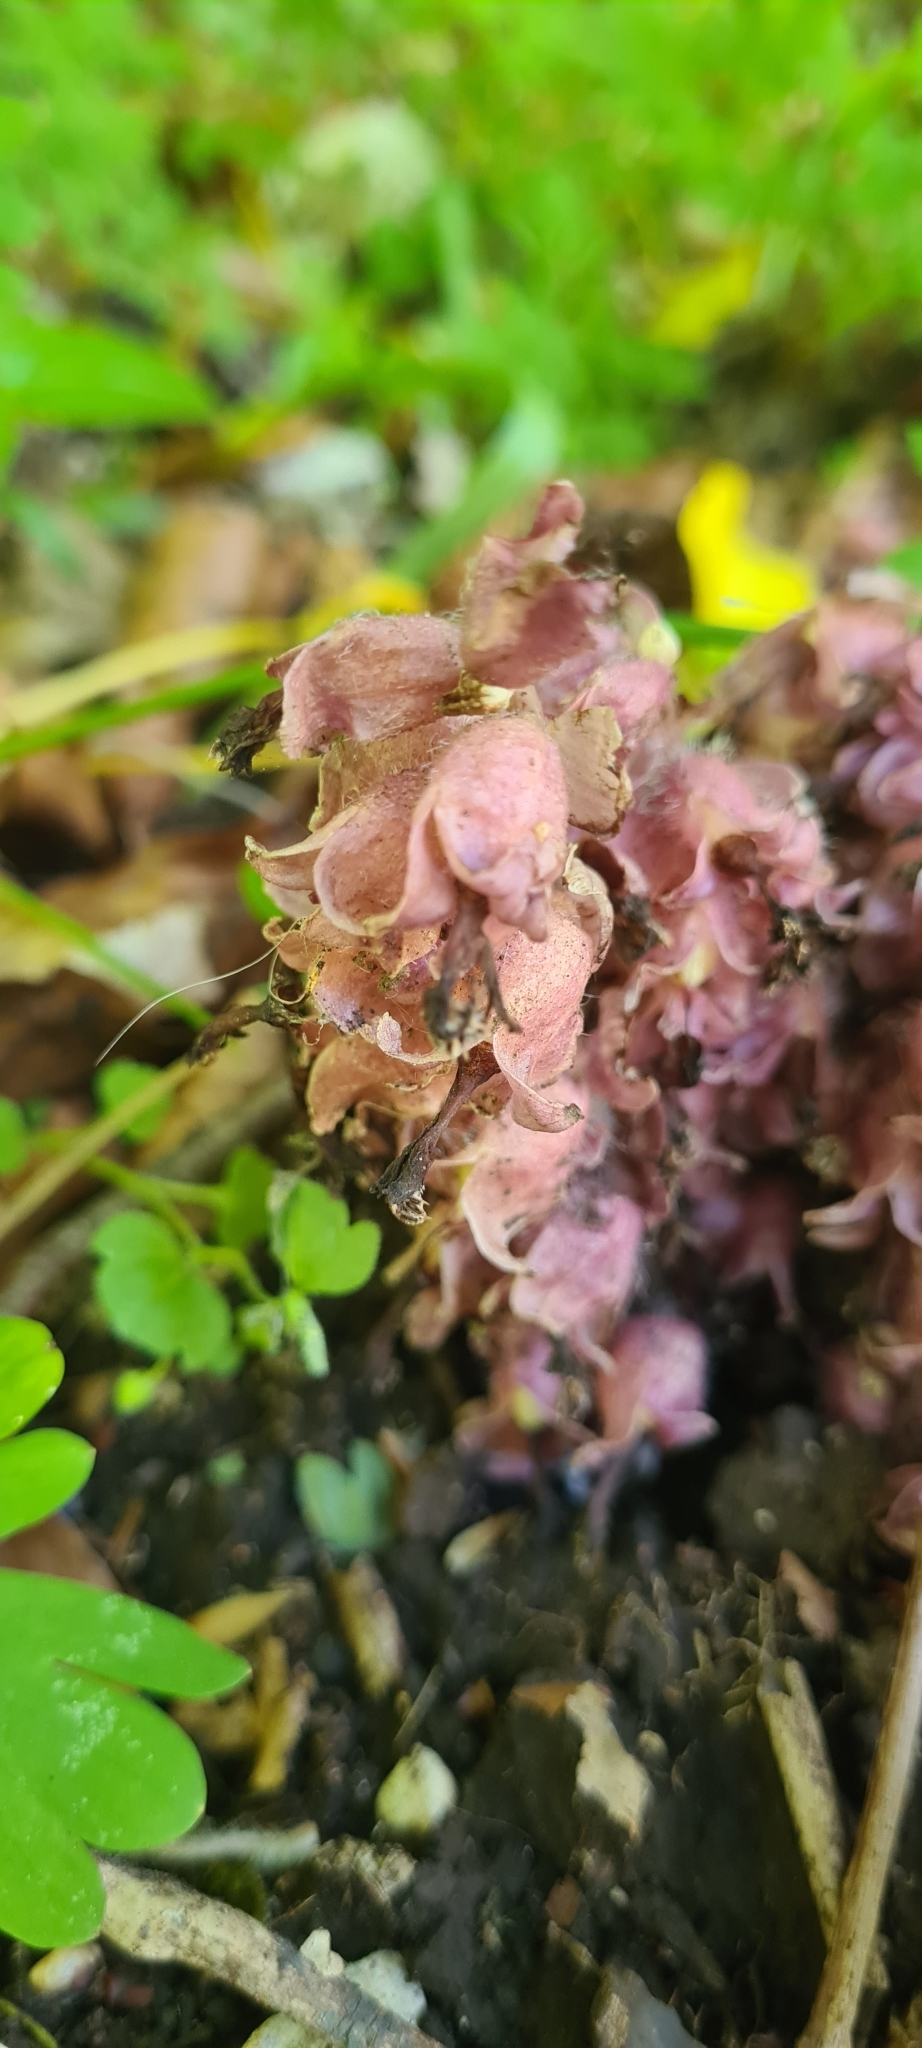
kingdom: Plantae
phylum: Tracheophyta
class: Magnoliopsida
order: Lamiales
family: Orobanchaceae
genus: Lathraea
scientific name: Lathraea squamaria
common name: Toothwort
